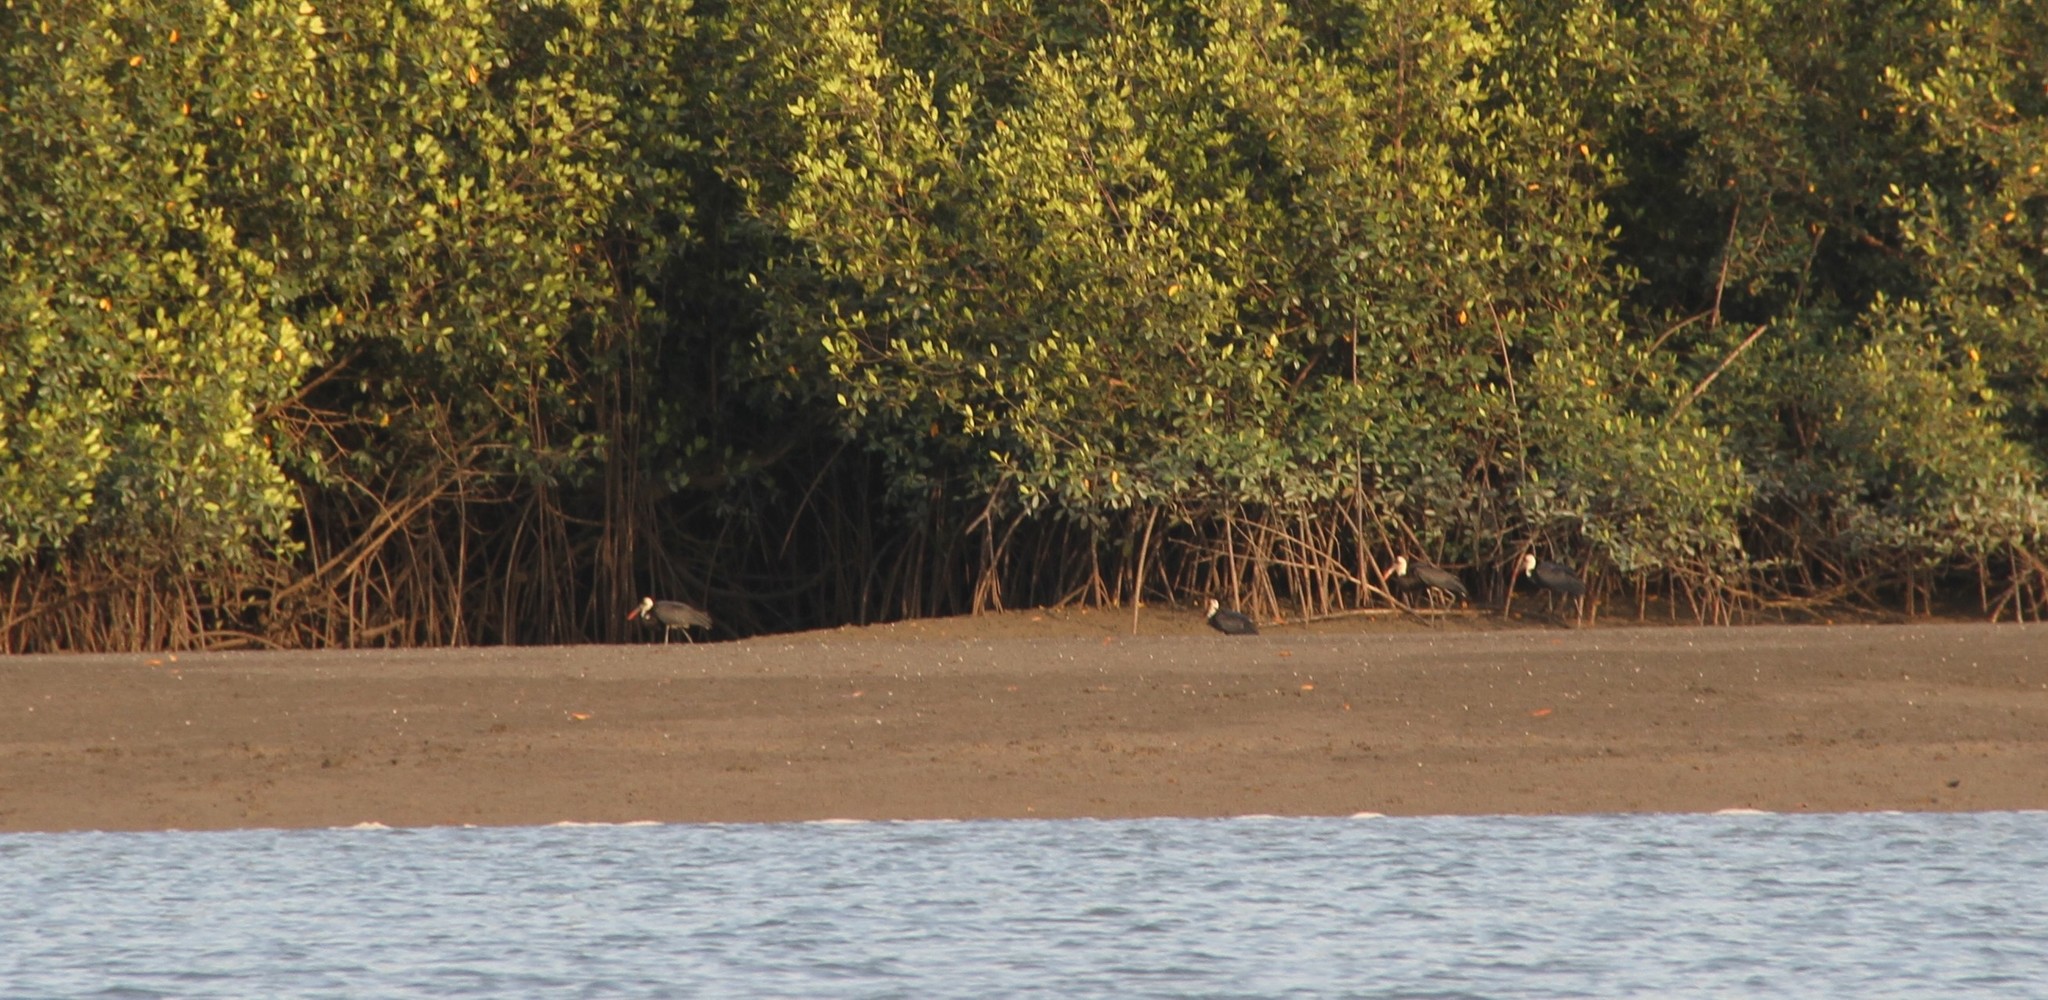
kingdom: Animalia
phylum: Chordata
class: Aves
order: Ciconiiformes
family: Ciconiidae
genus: Ciconia
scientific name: Ciconia microscelis
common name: African woollyneck
